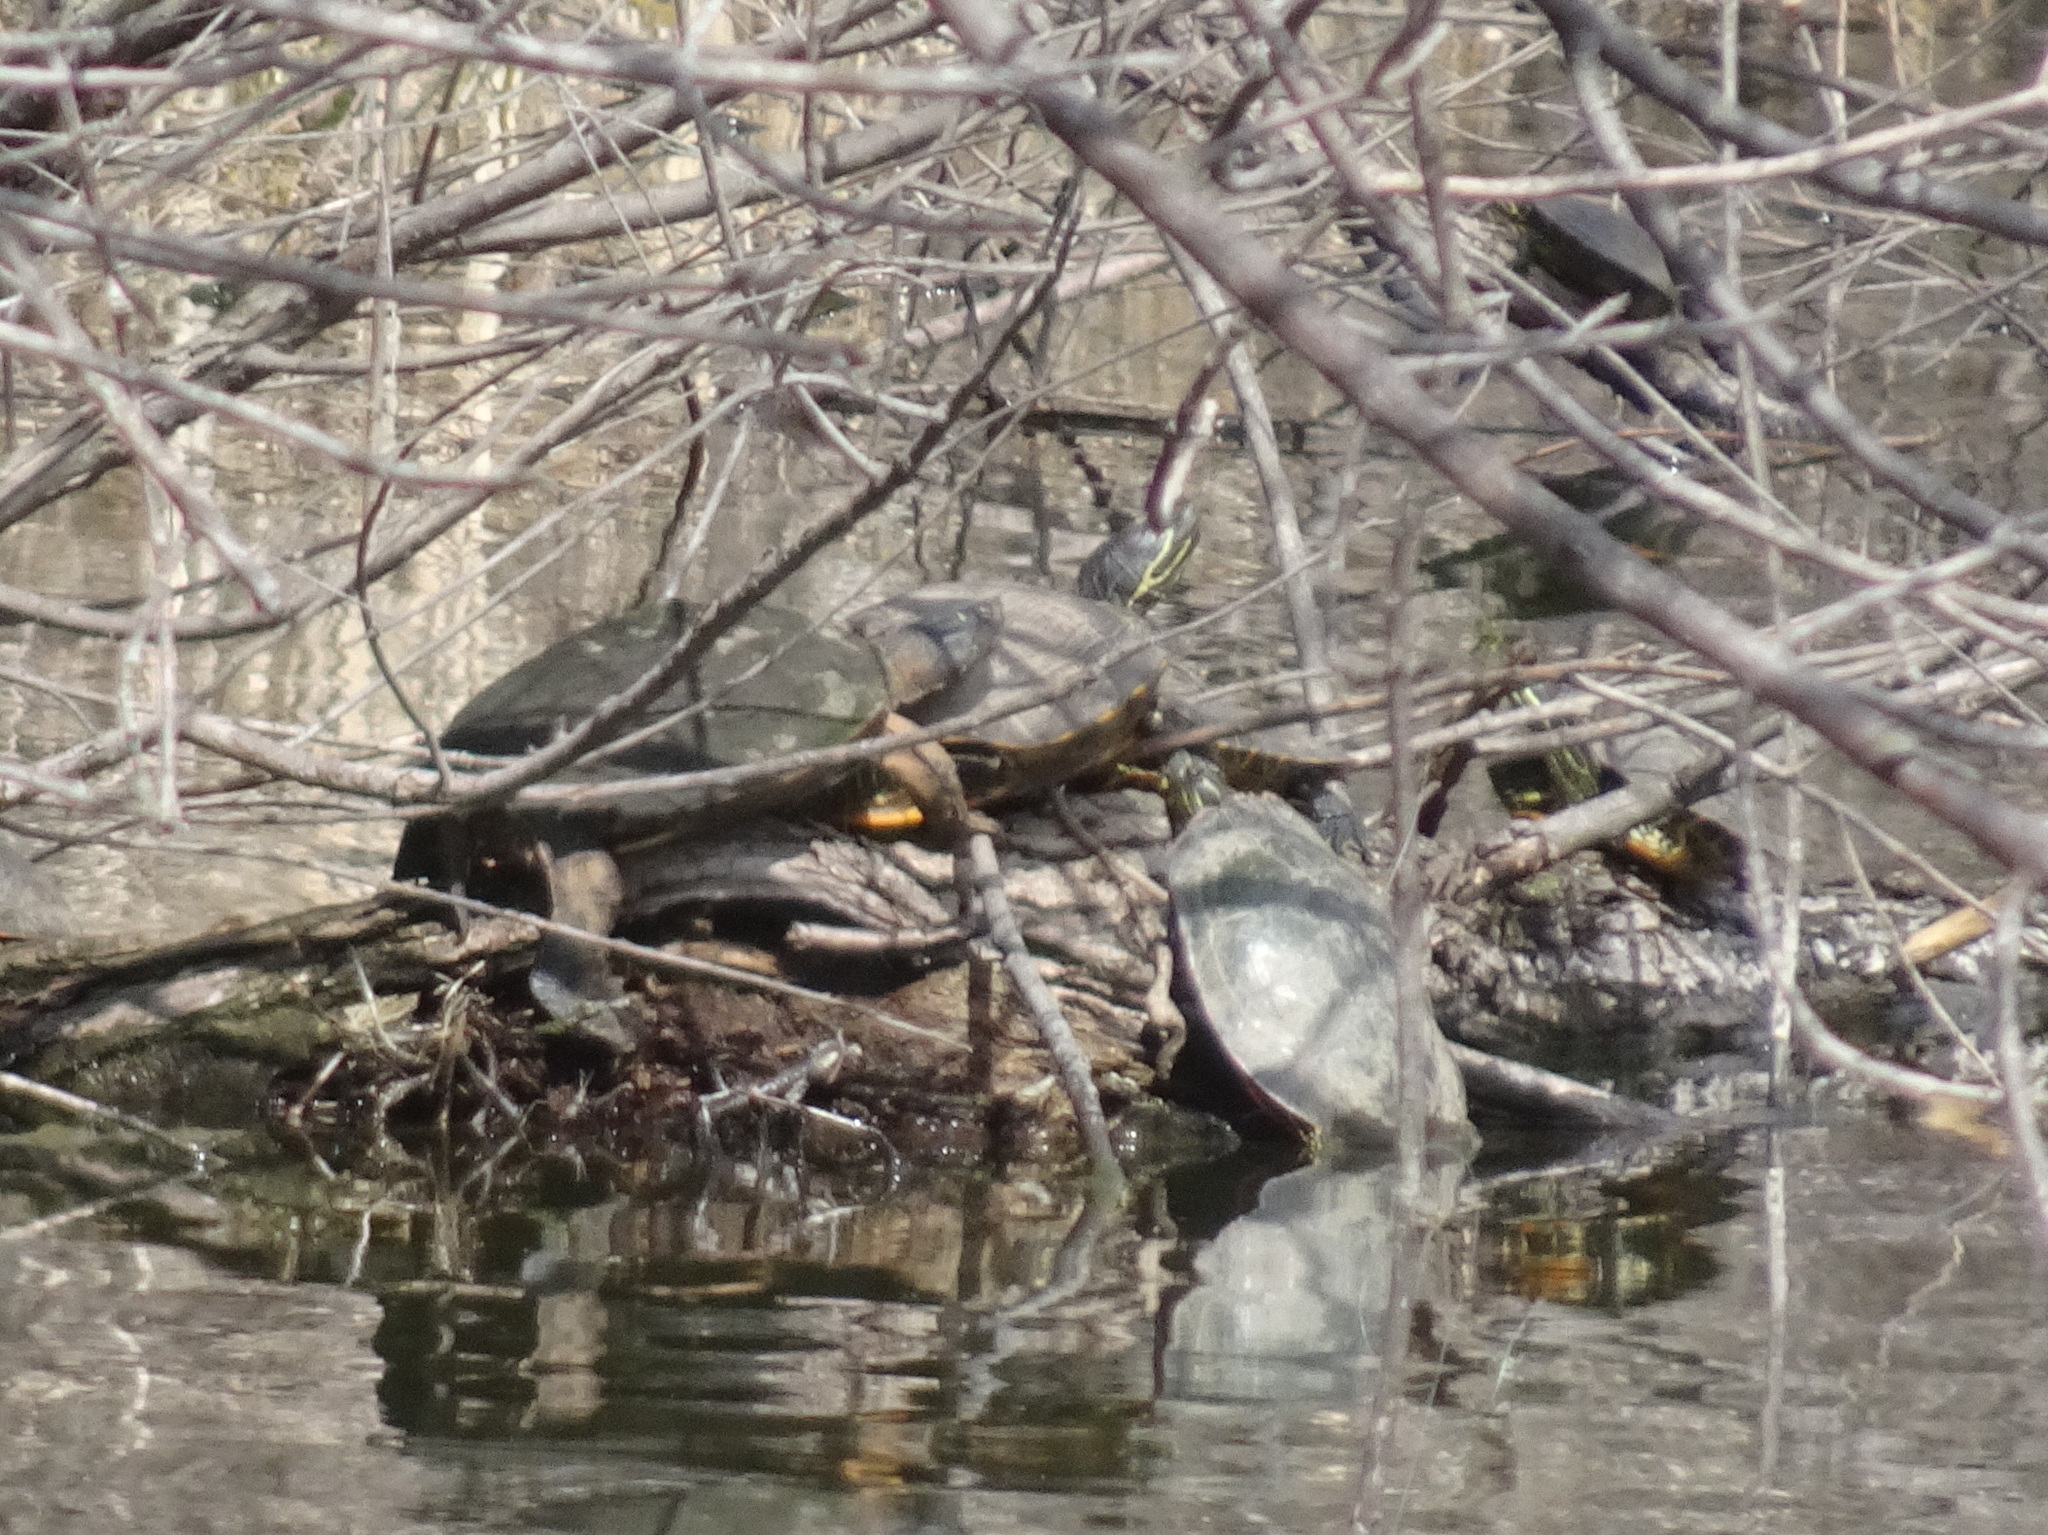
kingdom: Animalia
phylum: Chordata
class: Testudines
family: Emydidae
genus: Pseudemys
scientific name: Pseudemys concinna
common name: Eastern river cooter
